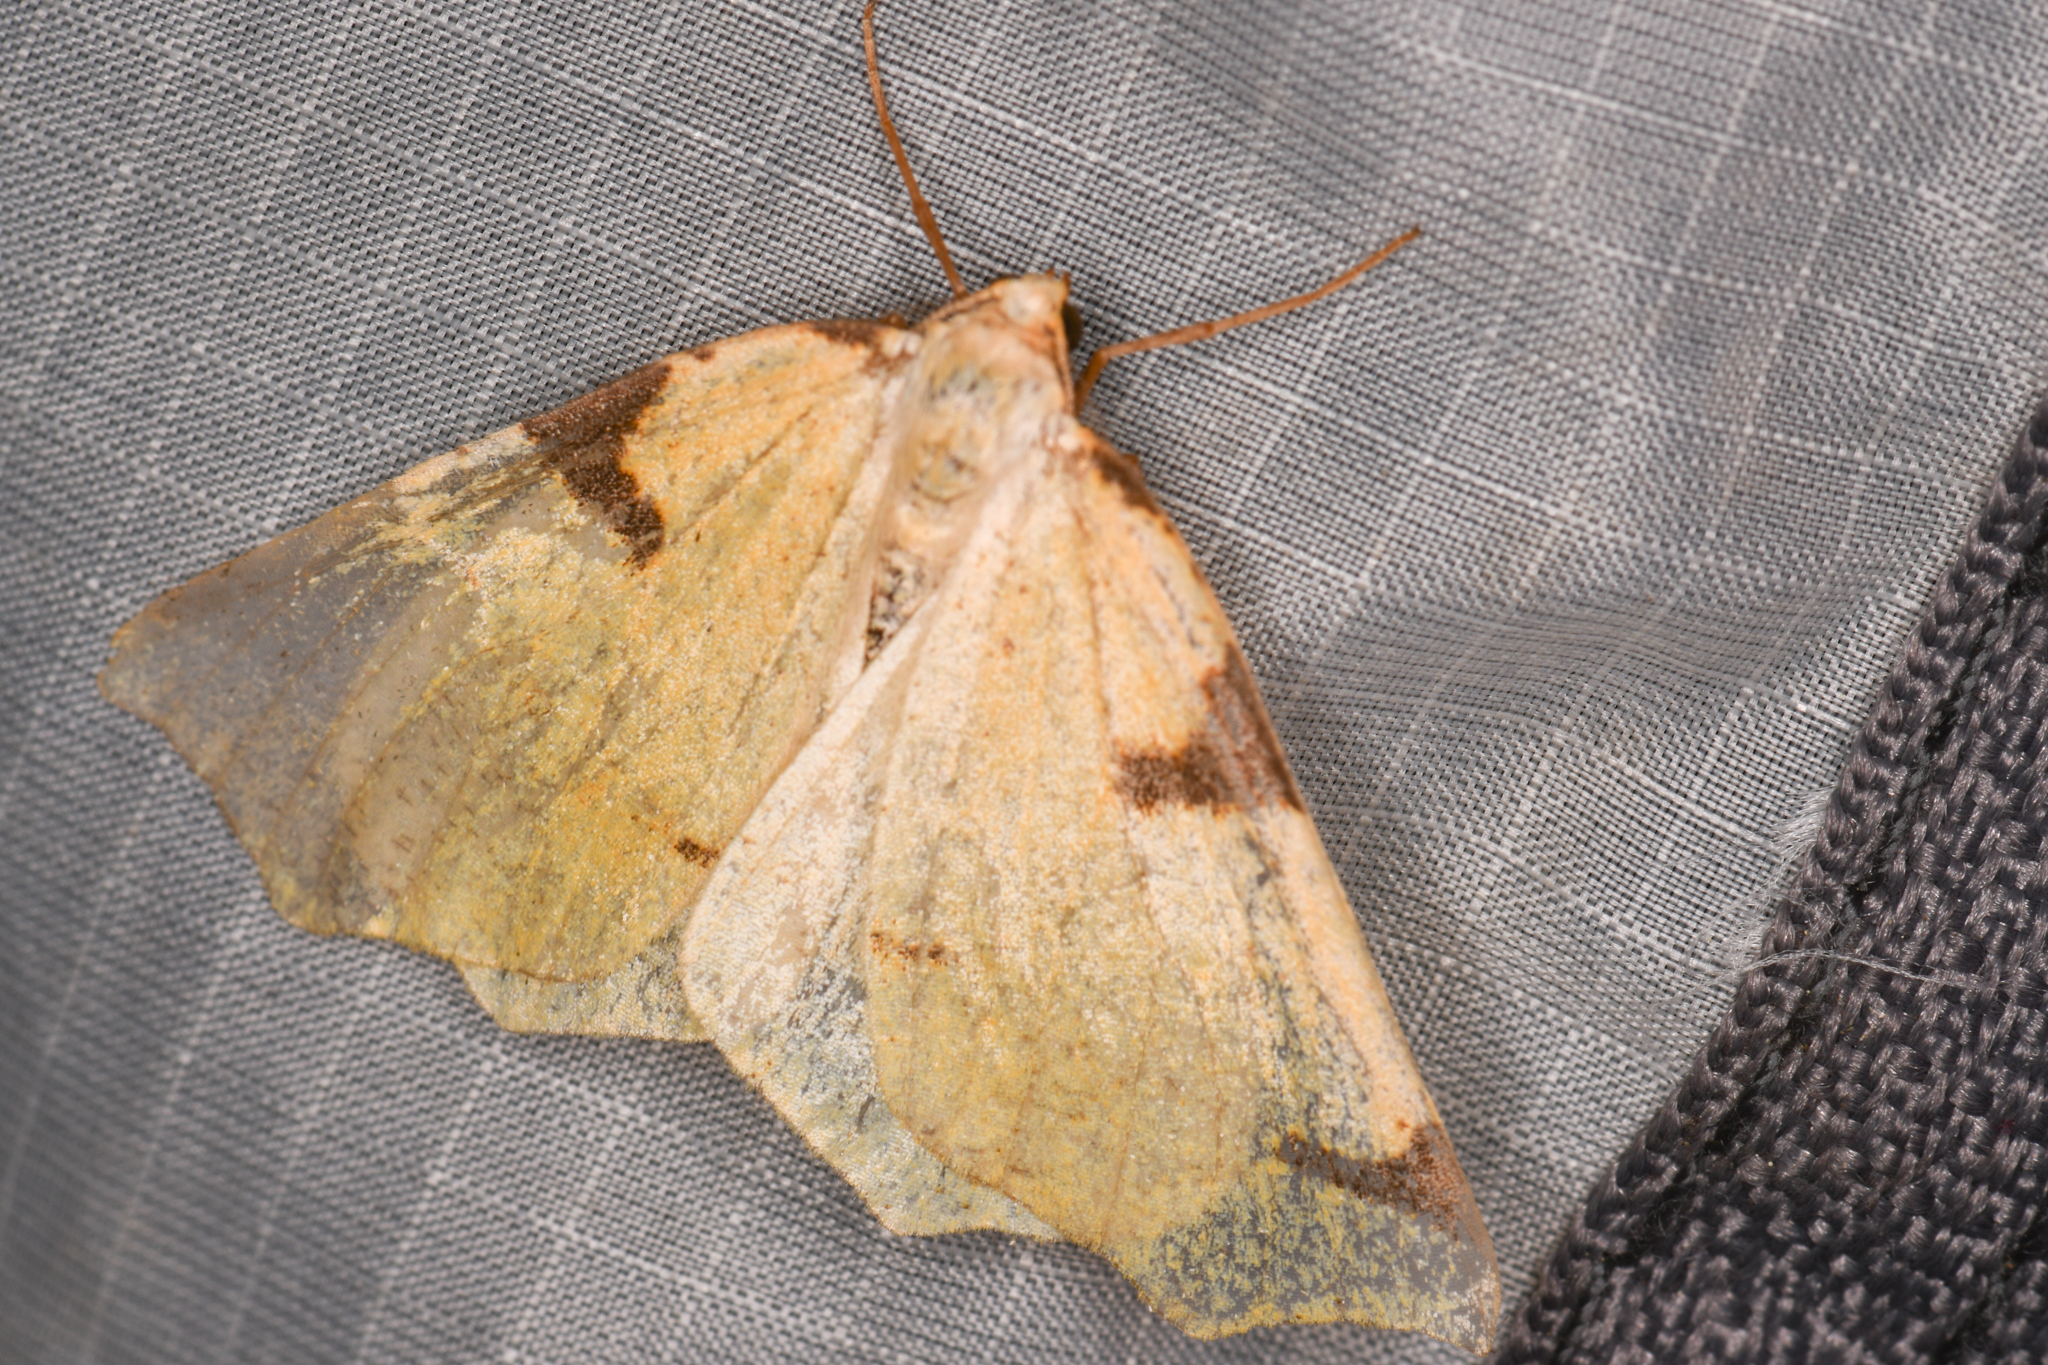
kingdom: Animalia
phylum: Arthropoda
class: Insecta
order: Lepidoptera
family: Geometridae
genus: Neoterpes
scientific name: Neoterpes trianguliferata
